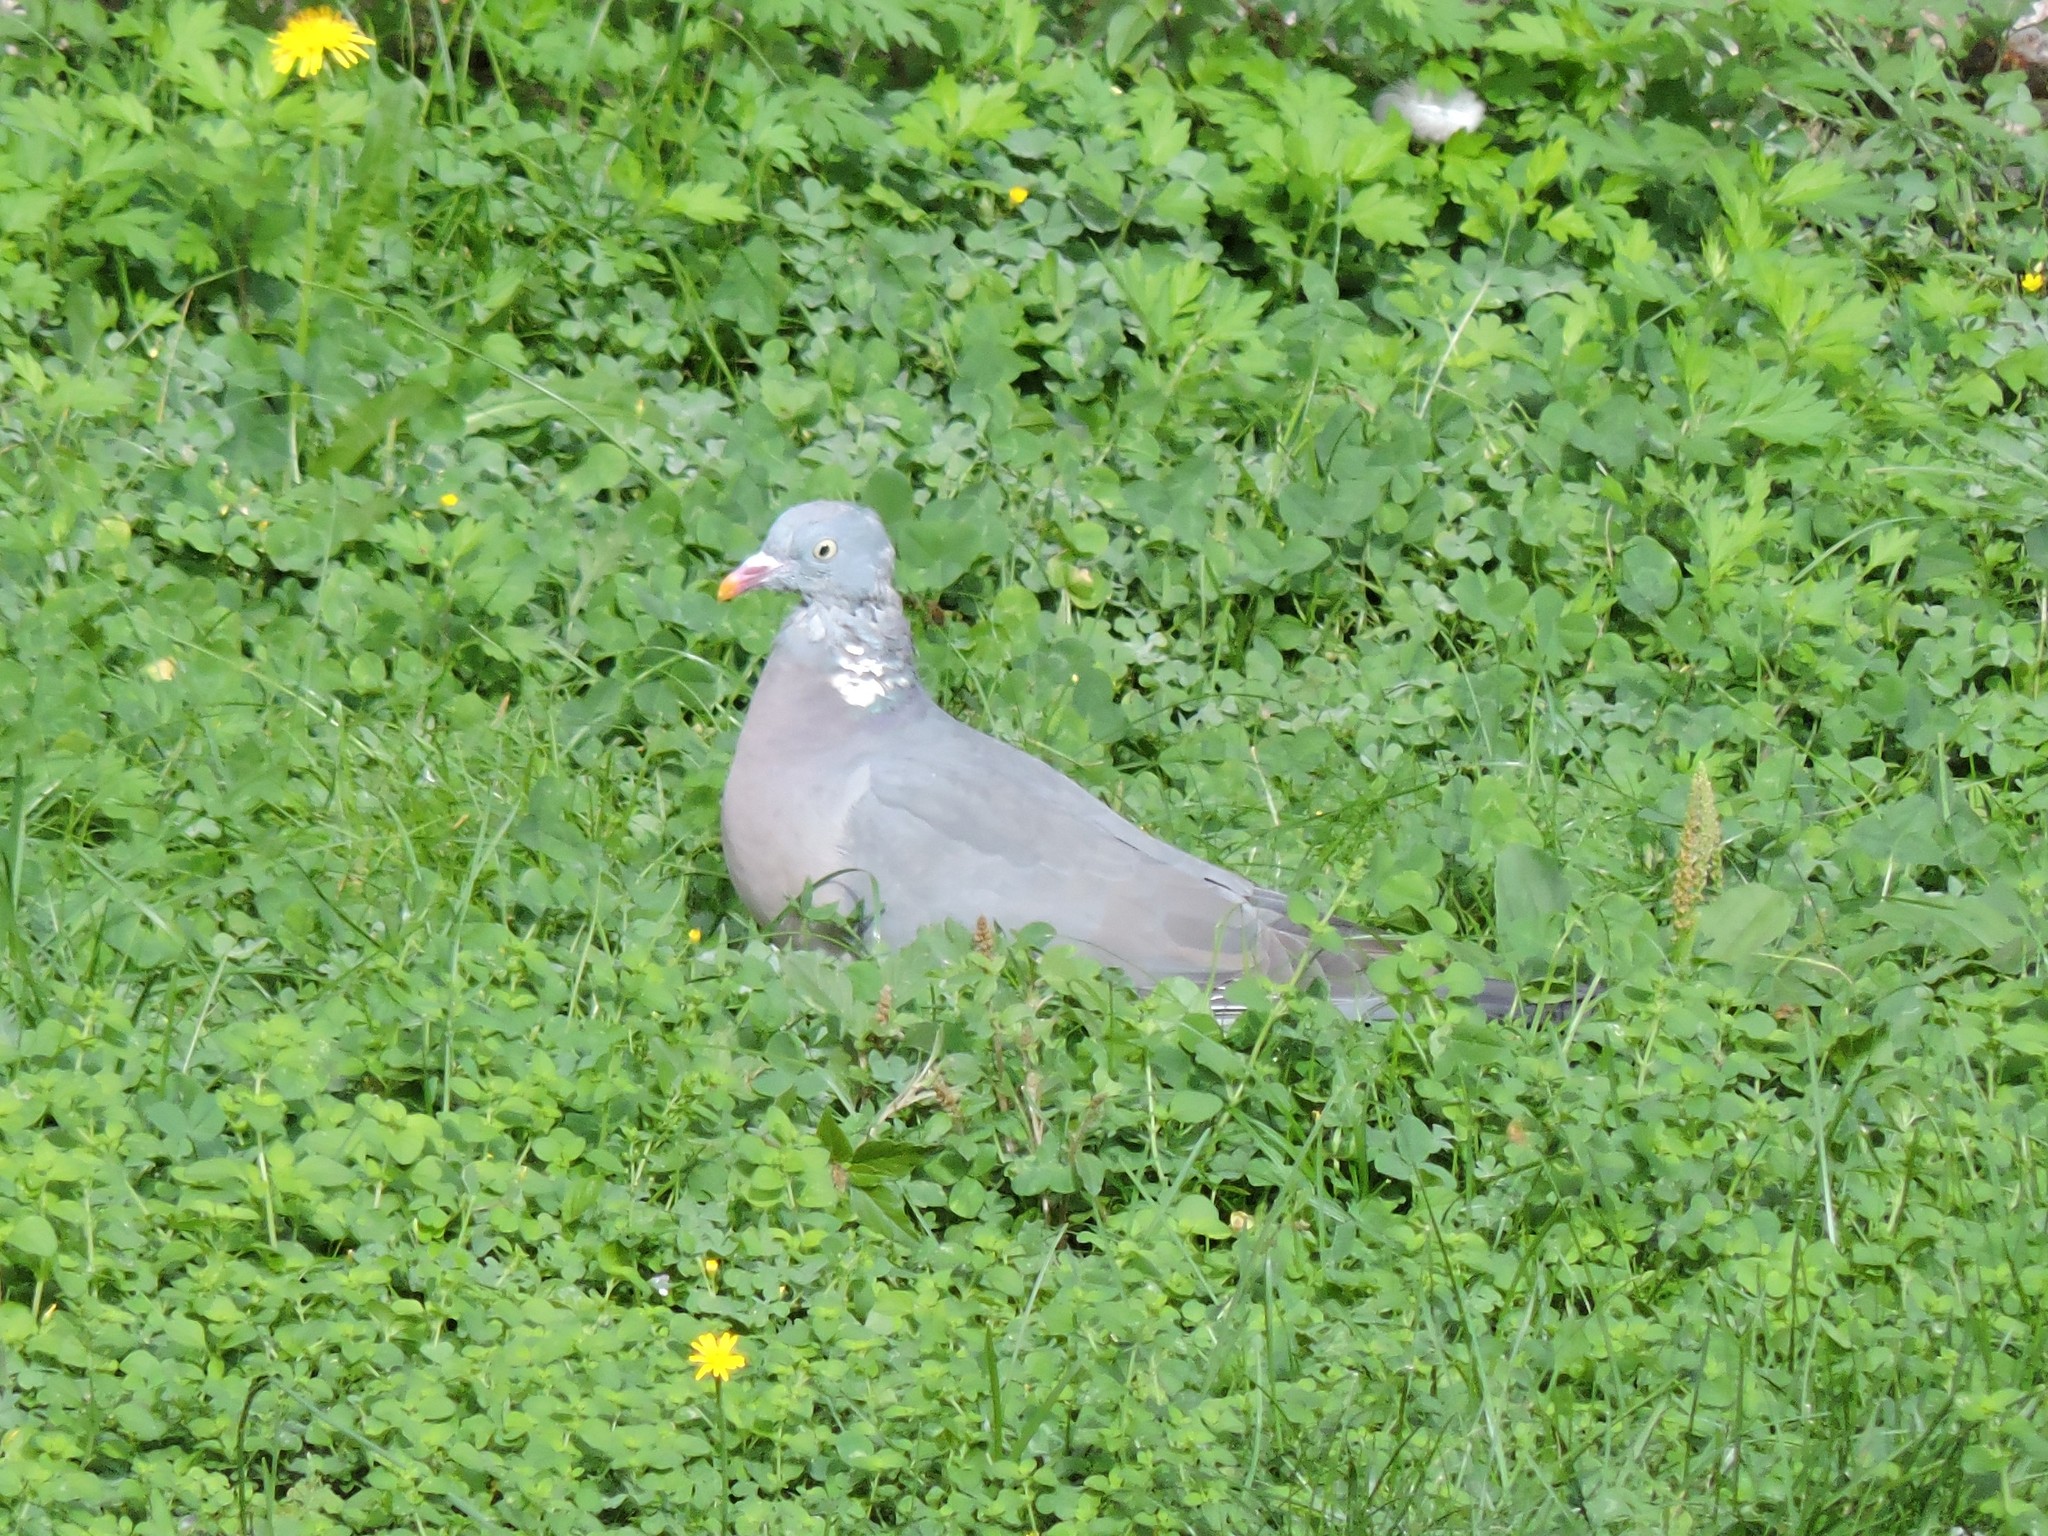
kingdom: Animalia
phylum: Chordata
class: Aves
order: Columbiformes
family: Columbidae
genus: Columba
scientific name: Columba palumbus
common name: Common wood pigeon
